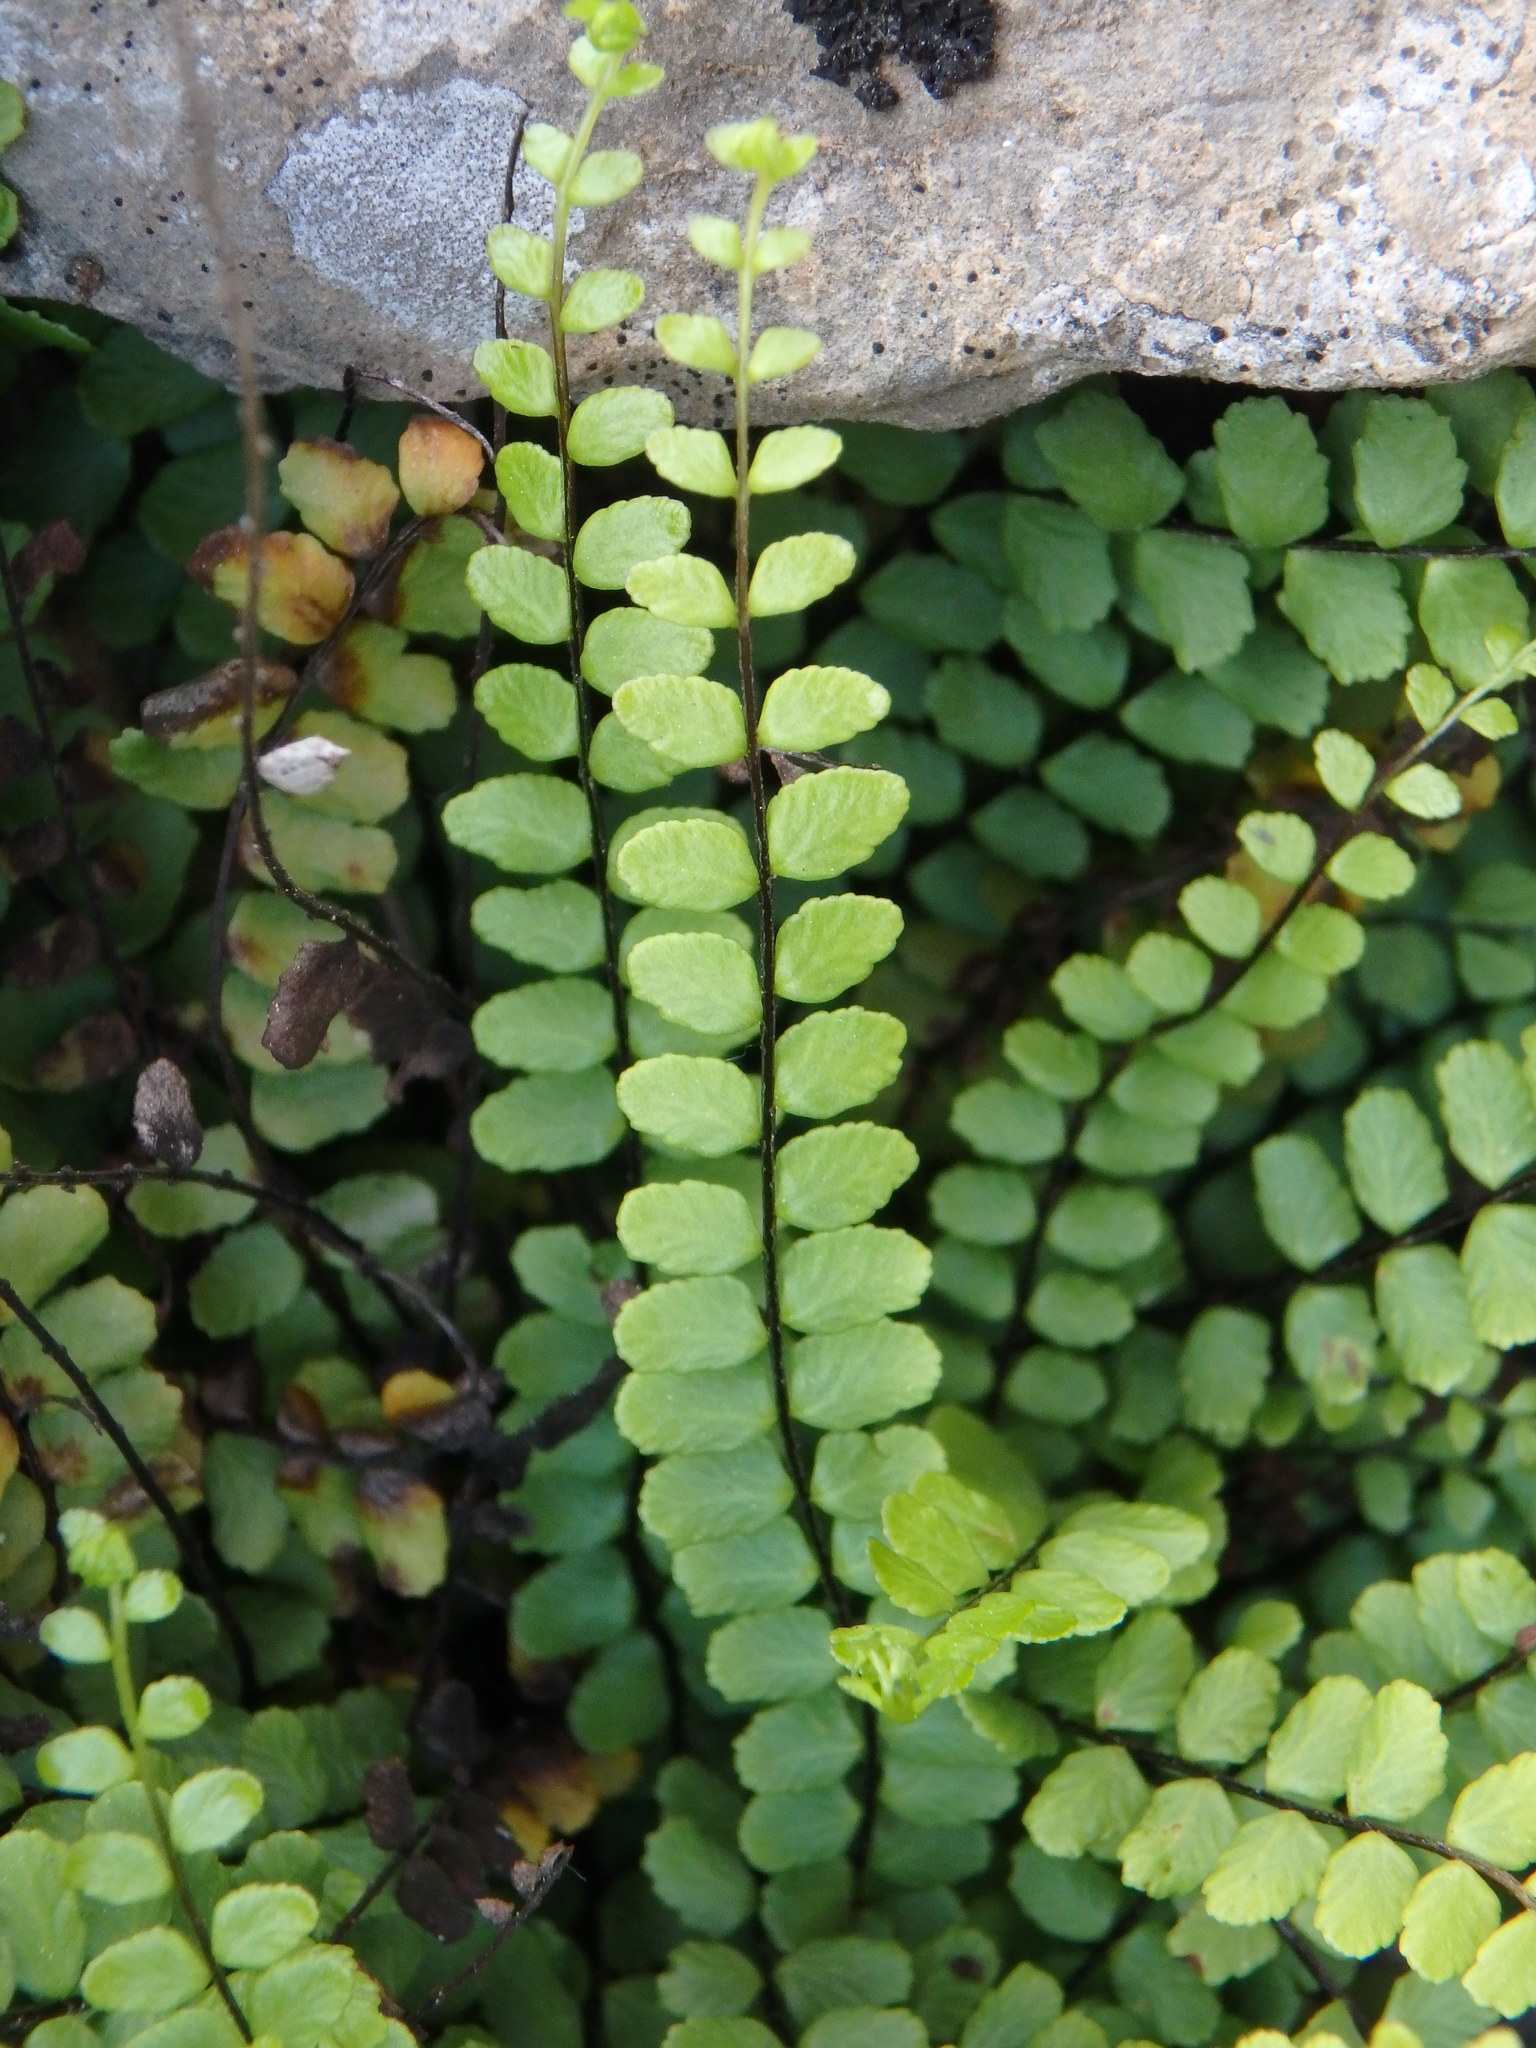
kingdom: Plantae
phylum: Tracheophyta
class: Polypodiopsida
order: Polypodiales
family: Aspleniaceae
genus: Asplenium
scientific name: Asplenium trichomanes
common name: Maidenhair spleenwort
